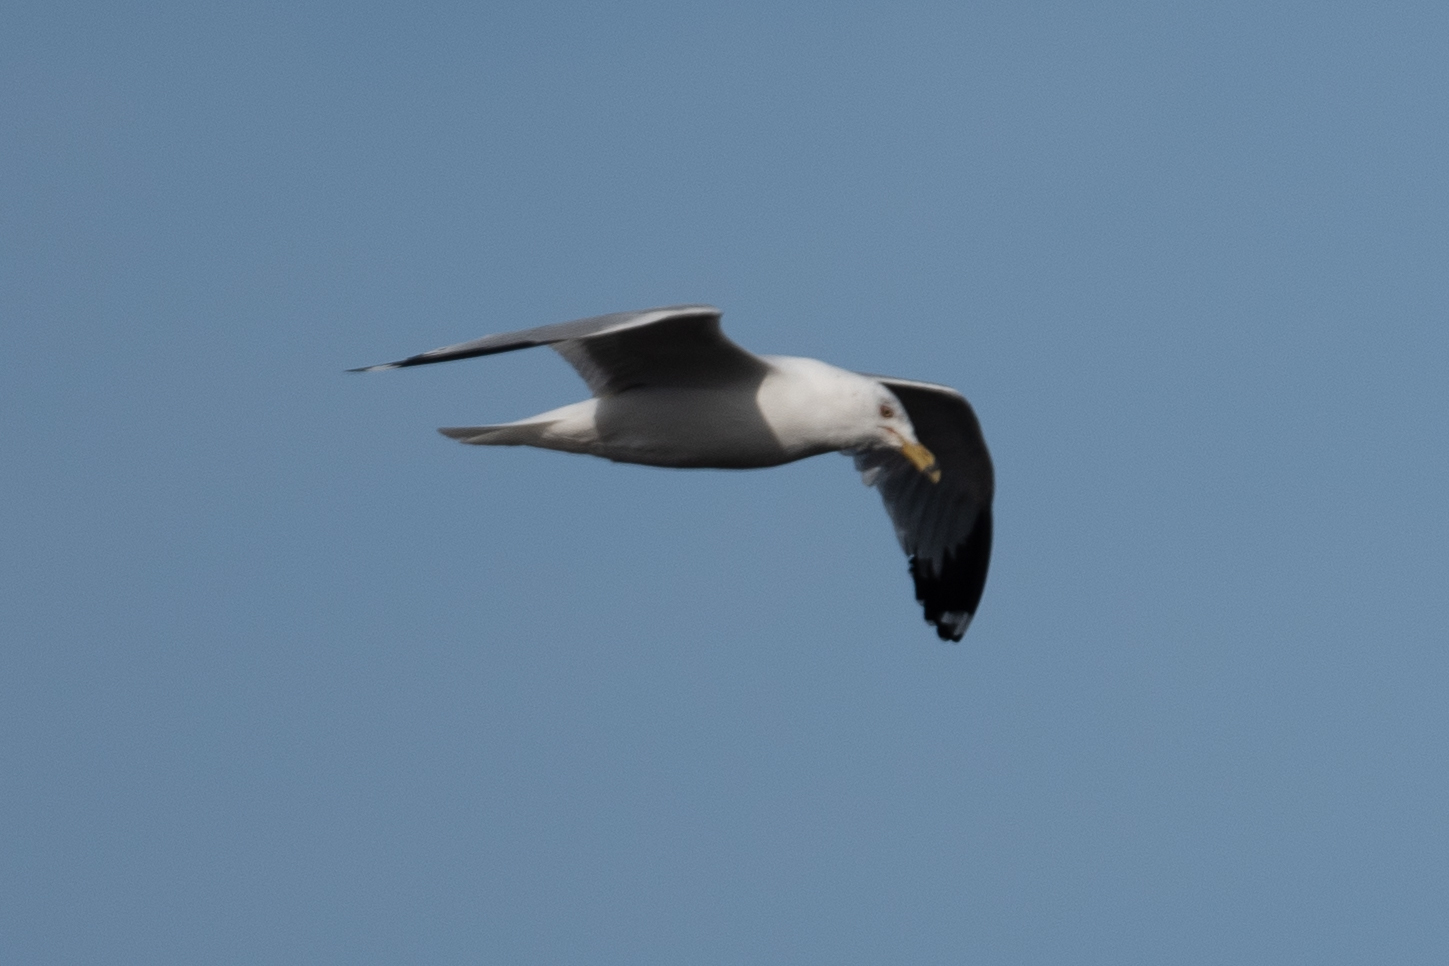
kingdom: Animalia
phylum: Chordata
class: Aves
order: Charadriiformes
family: Laridae
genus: Larus
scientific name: Larus delawarensis
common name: Ring-billed gull
